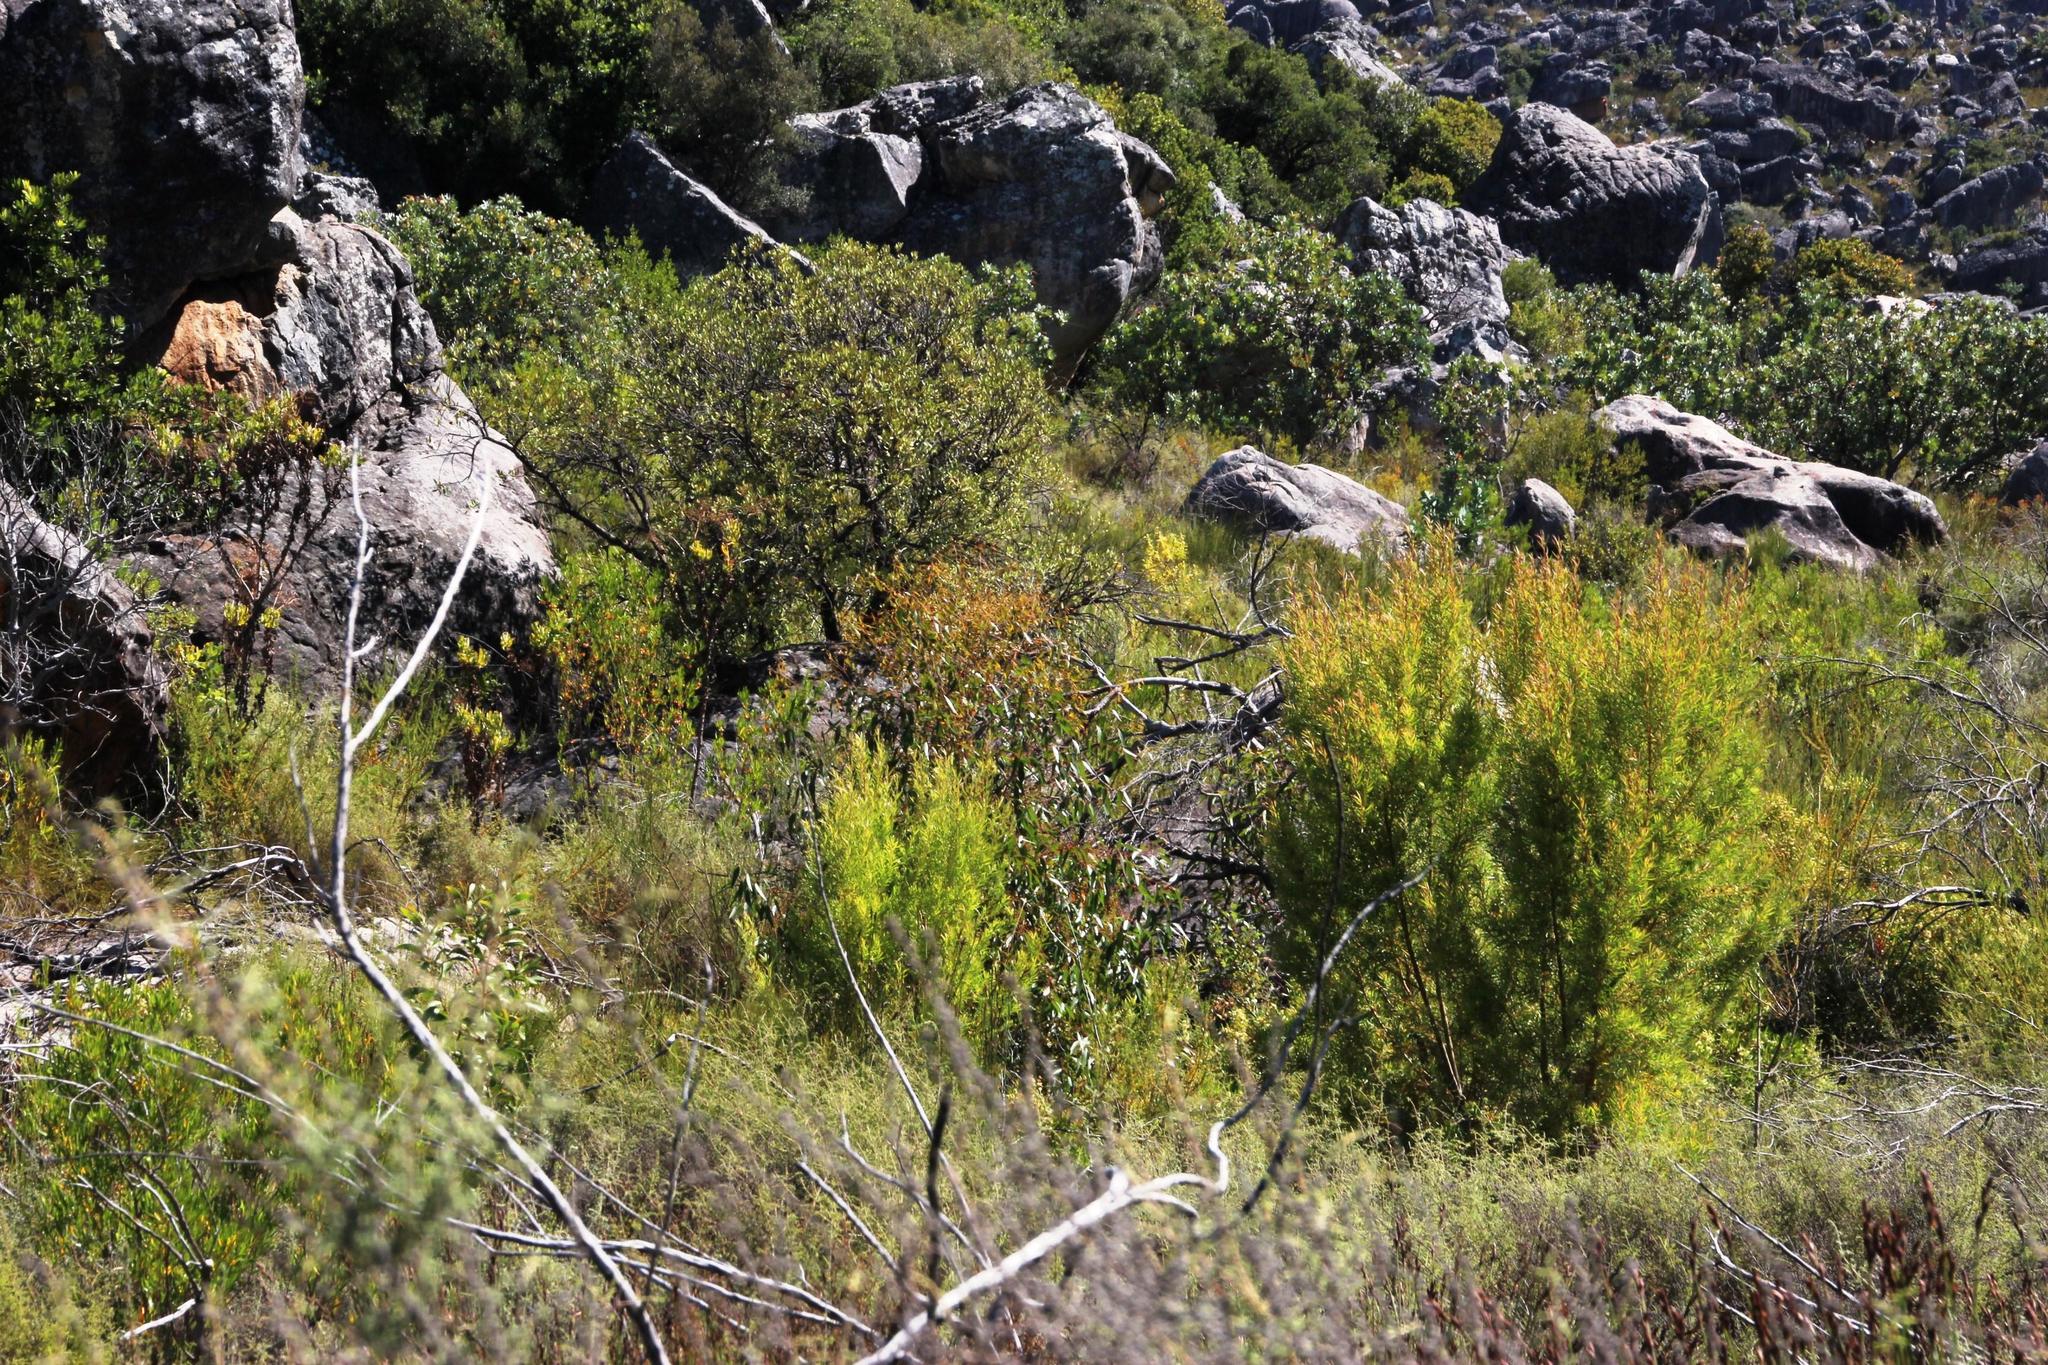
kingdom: Plantae
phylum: Tracheophyta
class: Magnoliopsida
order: Proteales
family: Proteaceae
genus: Leucadendron
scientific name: Leucadendron salicifolium
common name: Common stream conebush
